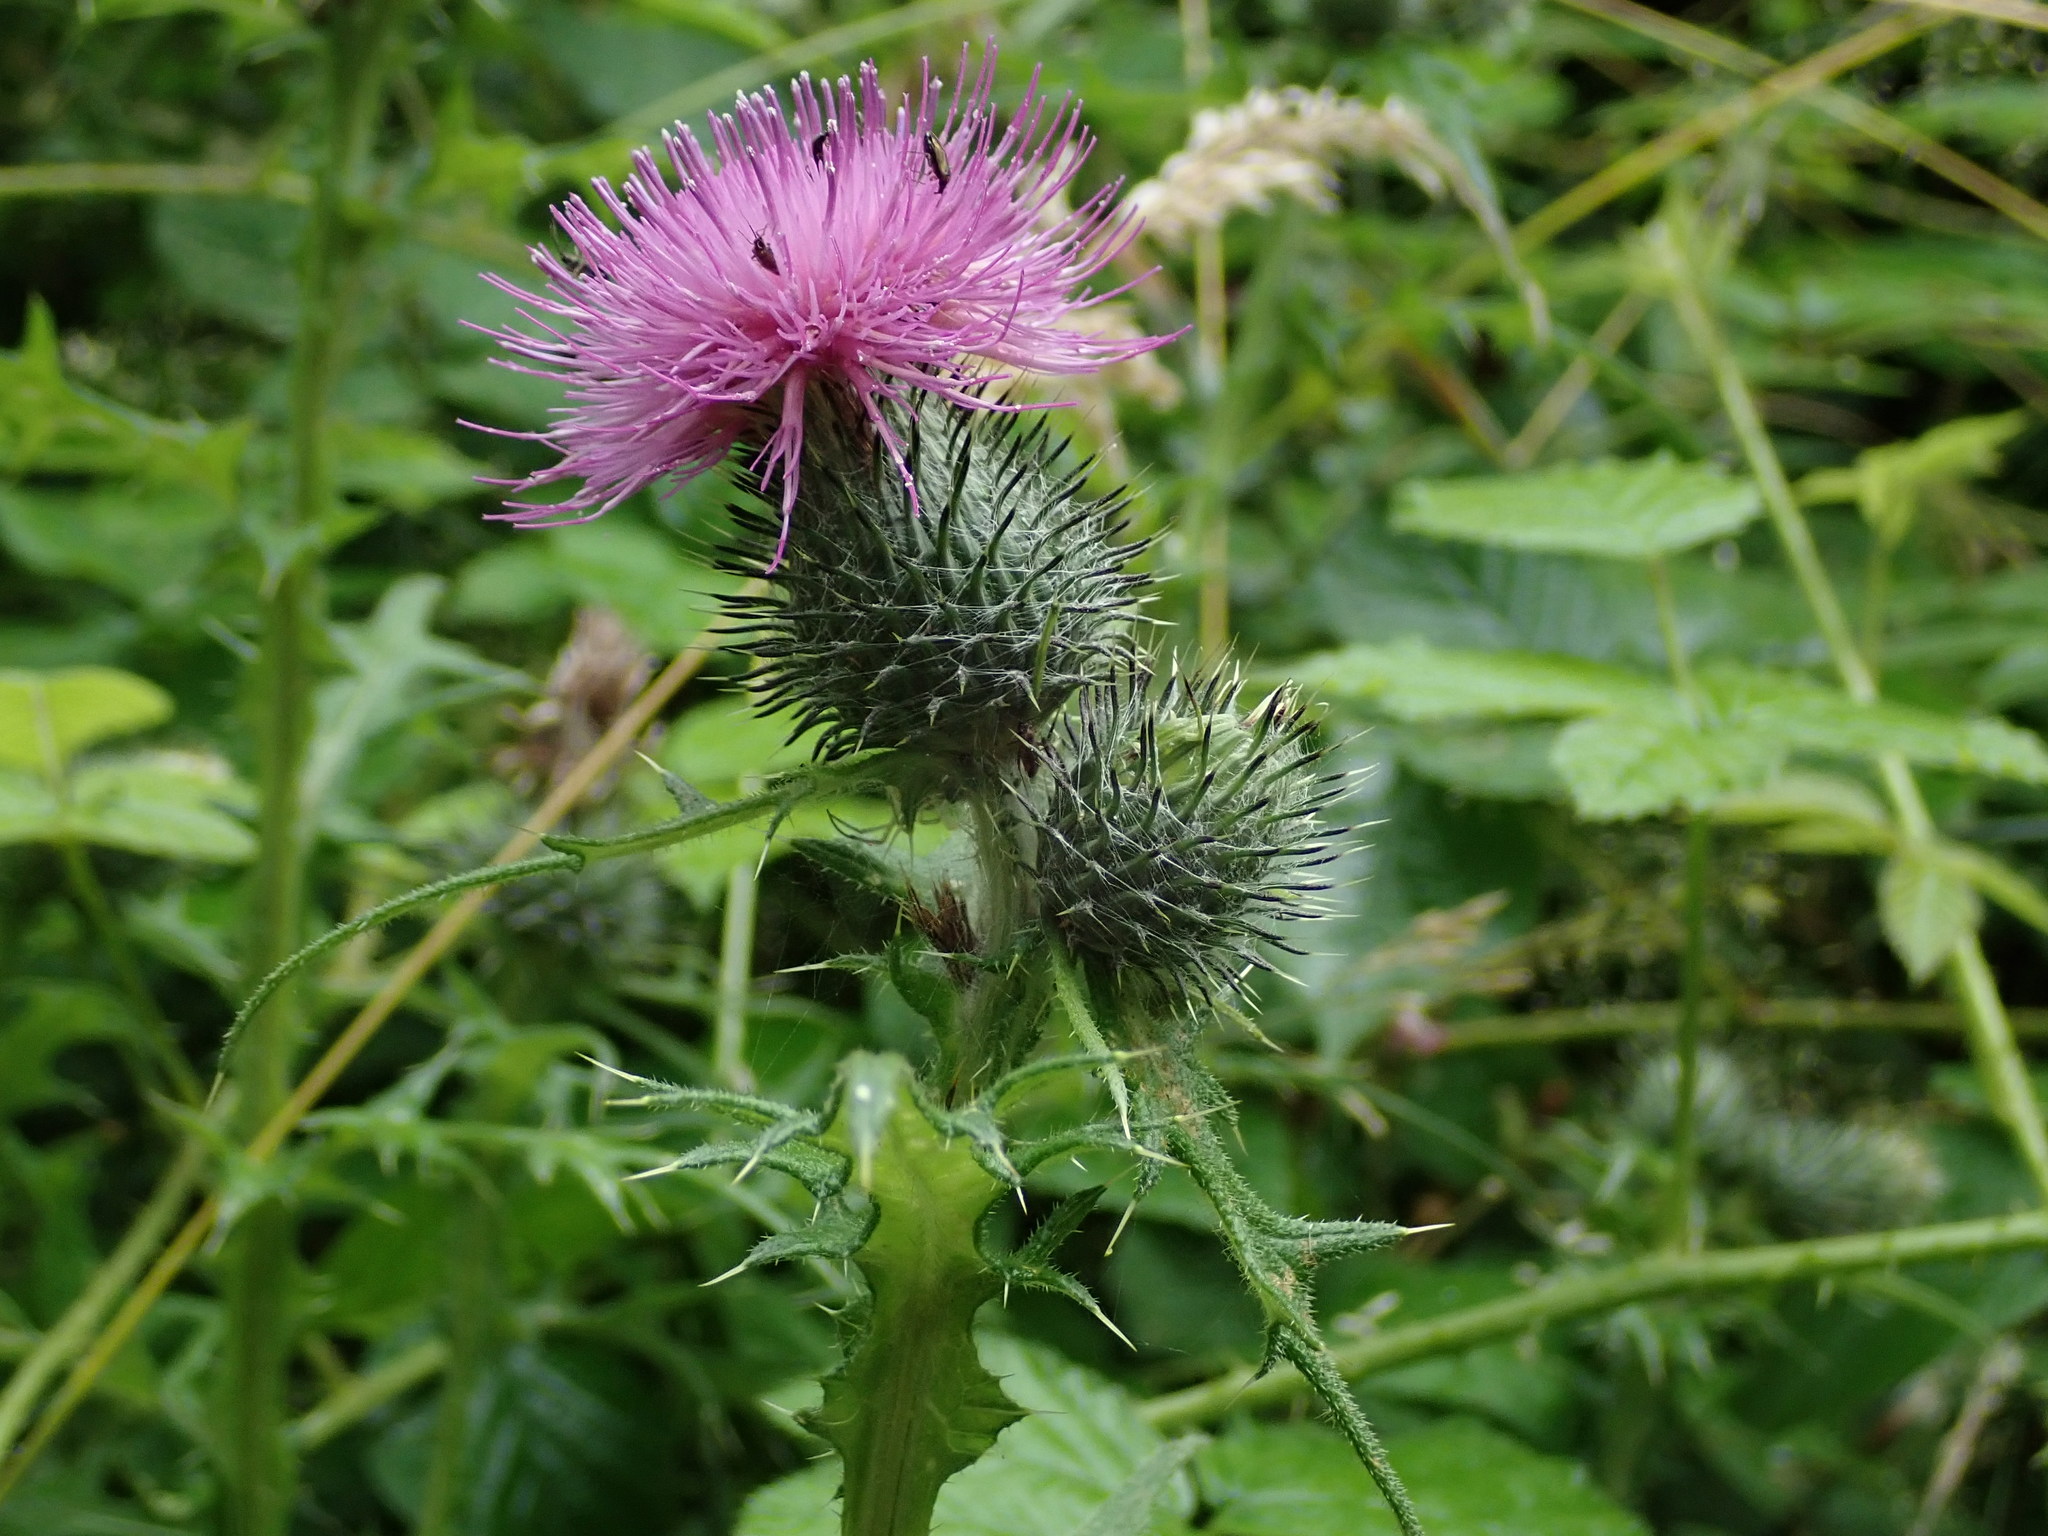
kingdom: Plantae
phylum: Tracheophyta
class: Magnoliopsida
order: Asterales
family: Asteraceae
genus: Cirsium
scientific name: Cirsium vulgare
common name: Bull thistle
